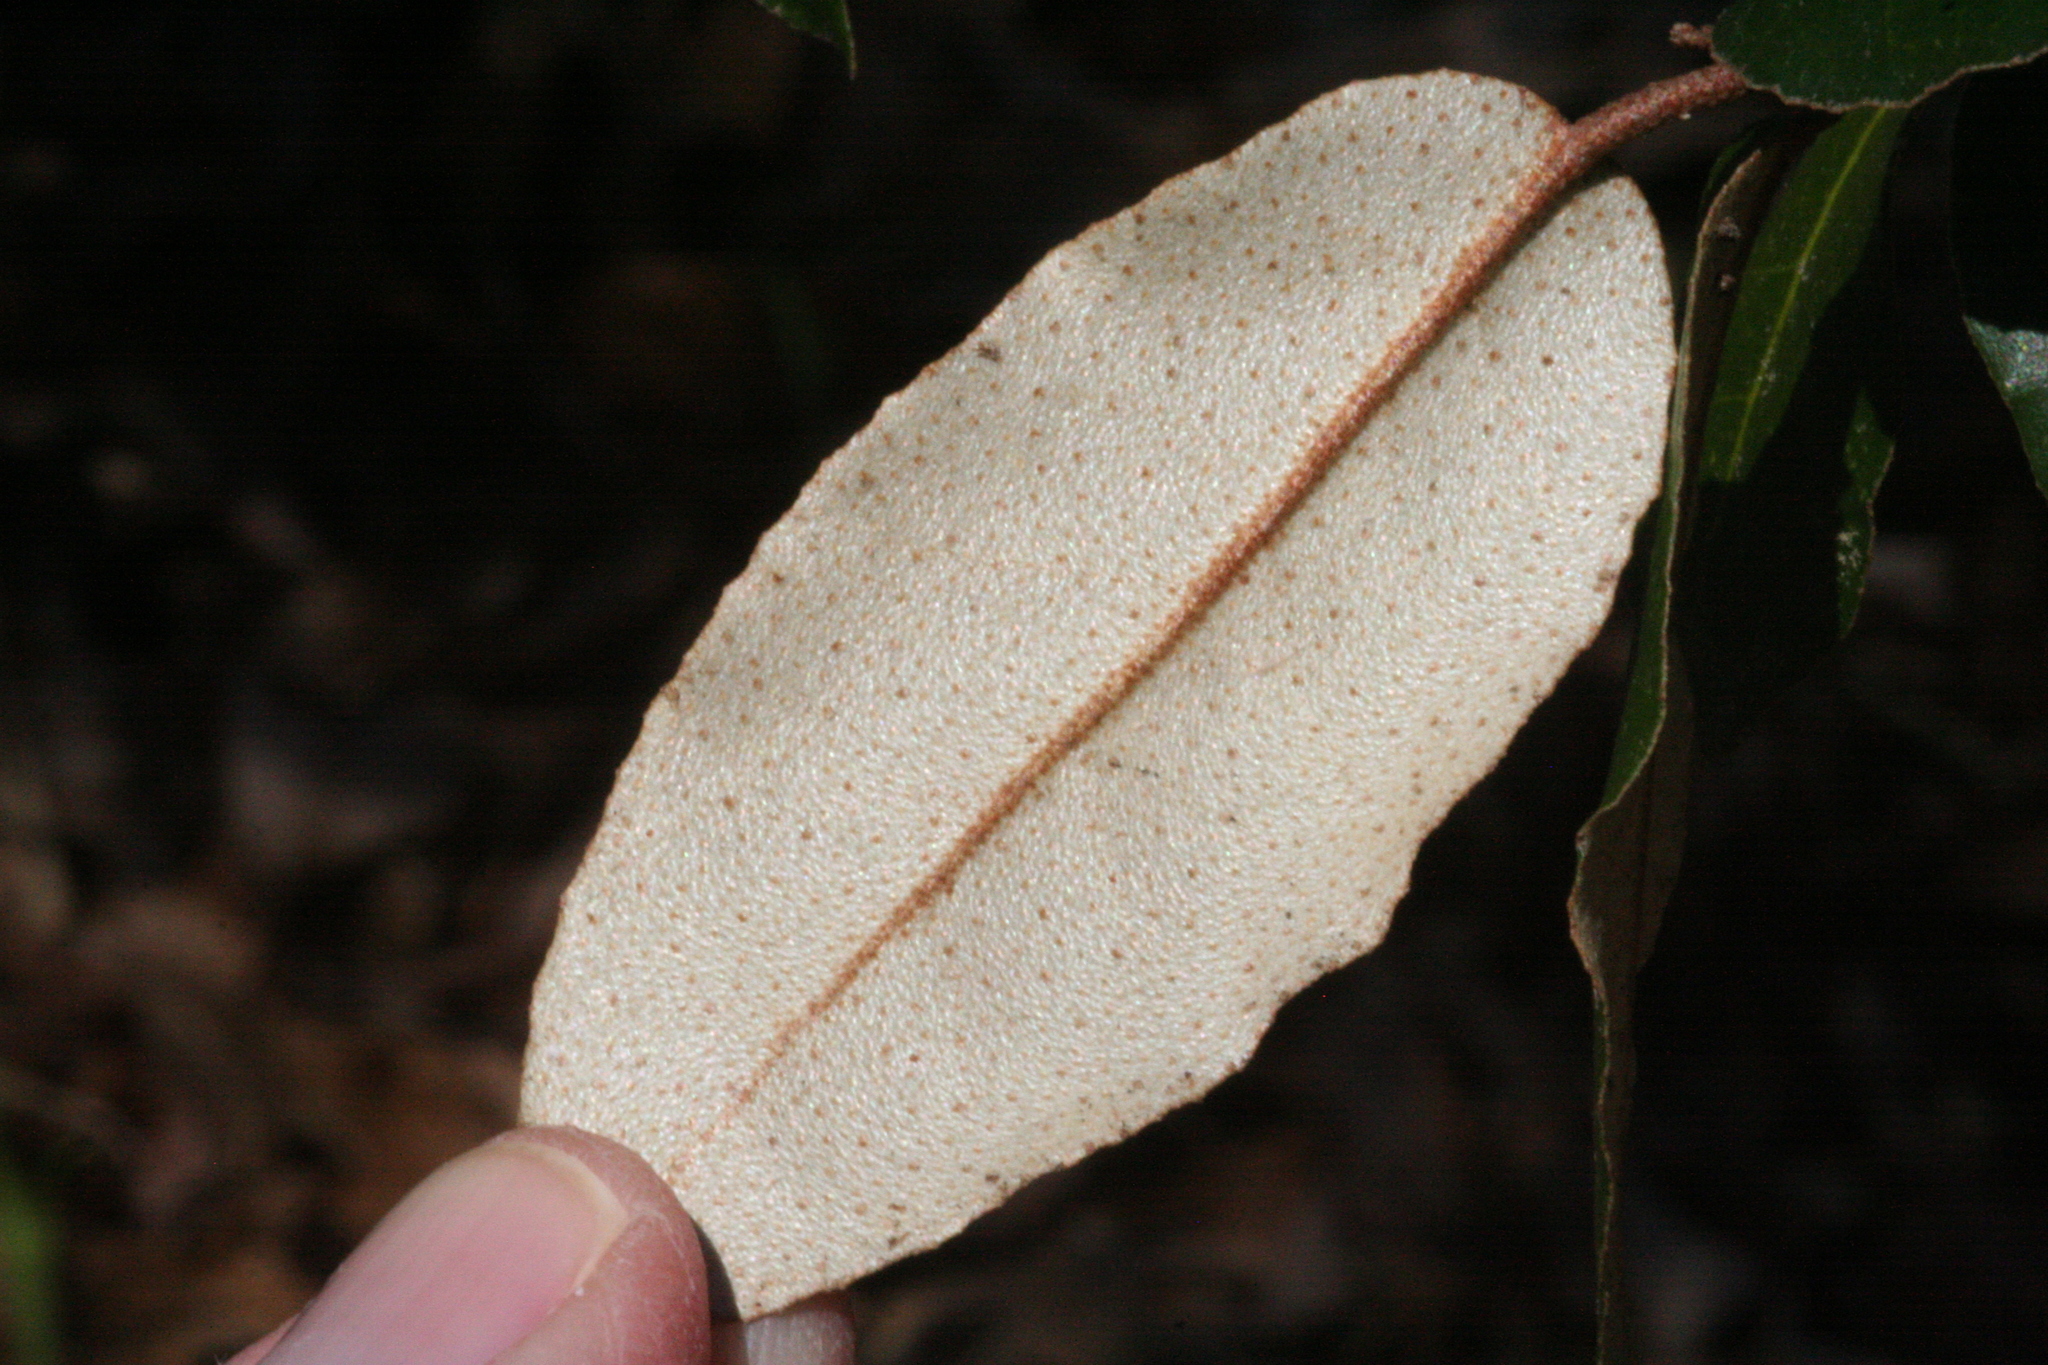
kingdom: Plantae
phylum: Tracheophyta
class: Magnoliopsida
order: Rosales
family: Elaeagnaceae
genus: Elaeagnus
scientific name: Elaeagnus pungens
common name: Spiny oleaster
